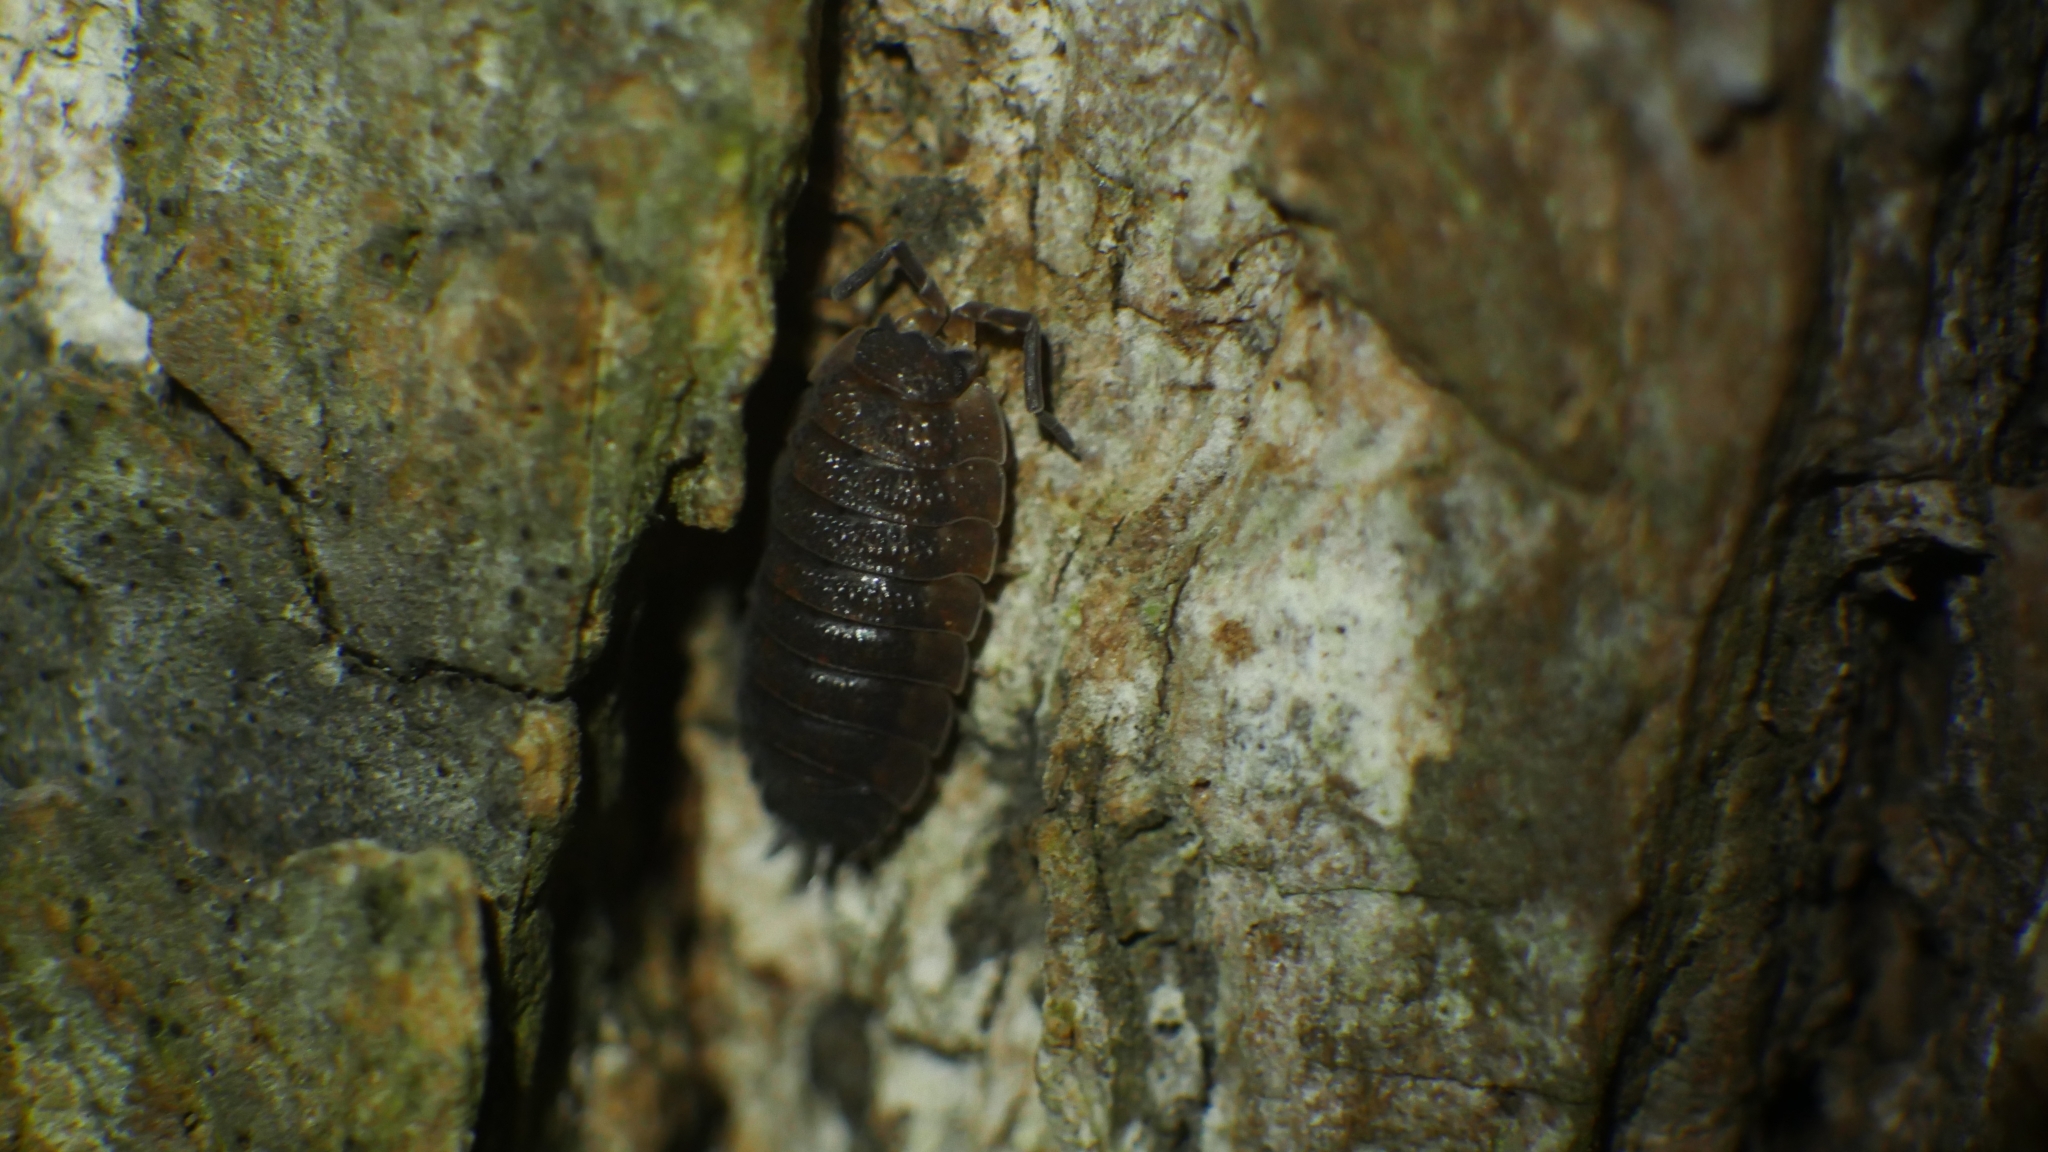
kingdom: Animalia
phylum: Arthropoda
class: Malacostraca
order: Isopoda
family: Porcellionidae
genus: Porcellio
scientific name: Porcellio scaber
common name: Common rough woodlouse
